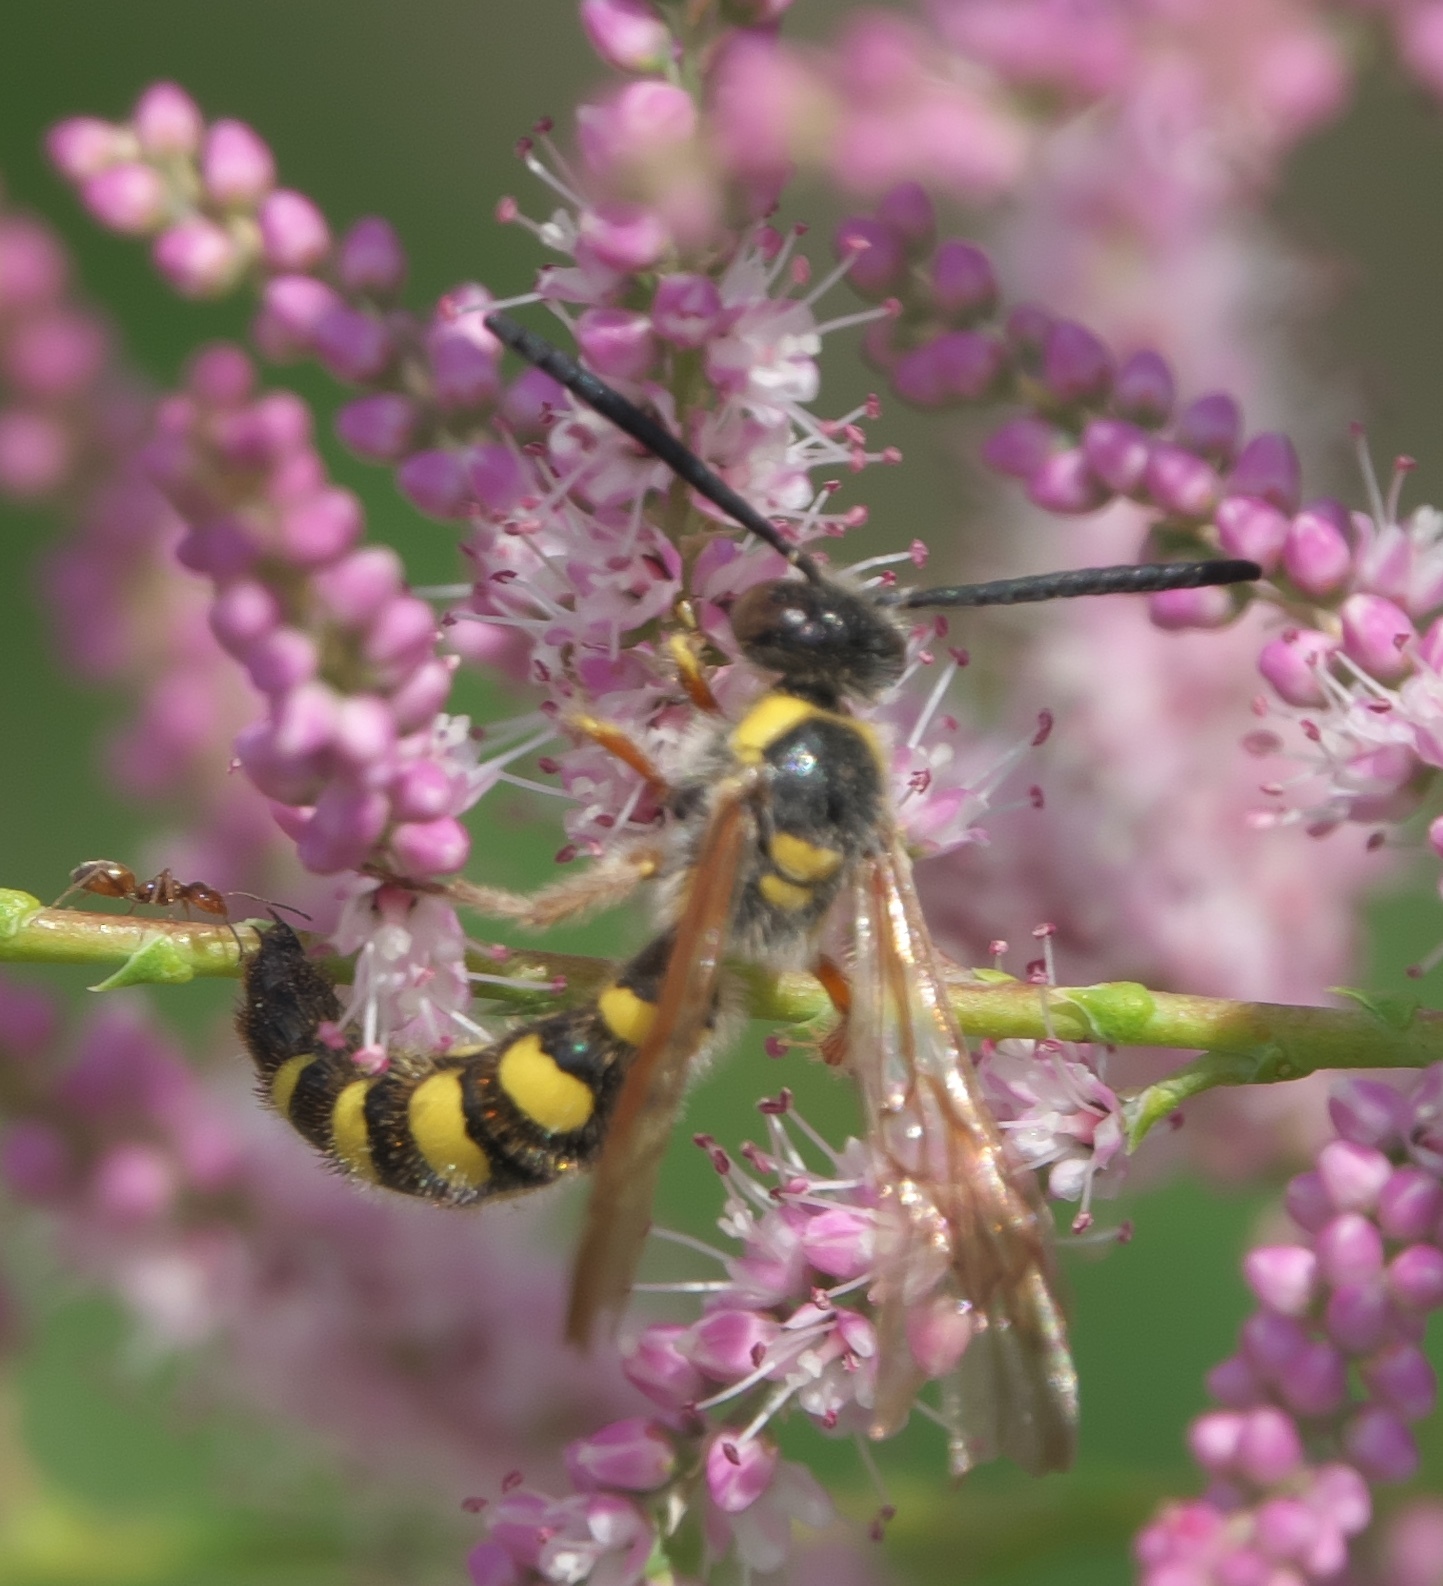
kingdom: Animalia
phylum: Arthropoda
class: Insecta
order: Hymenoptera
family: Scoliidae
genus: Colpa
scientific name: Colpa octomaculata
